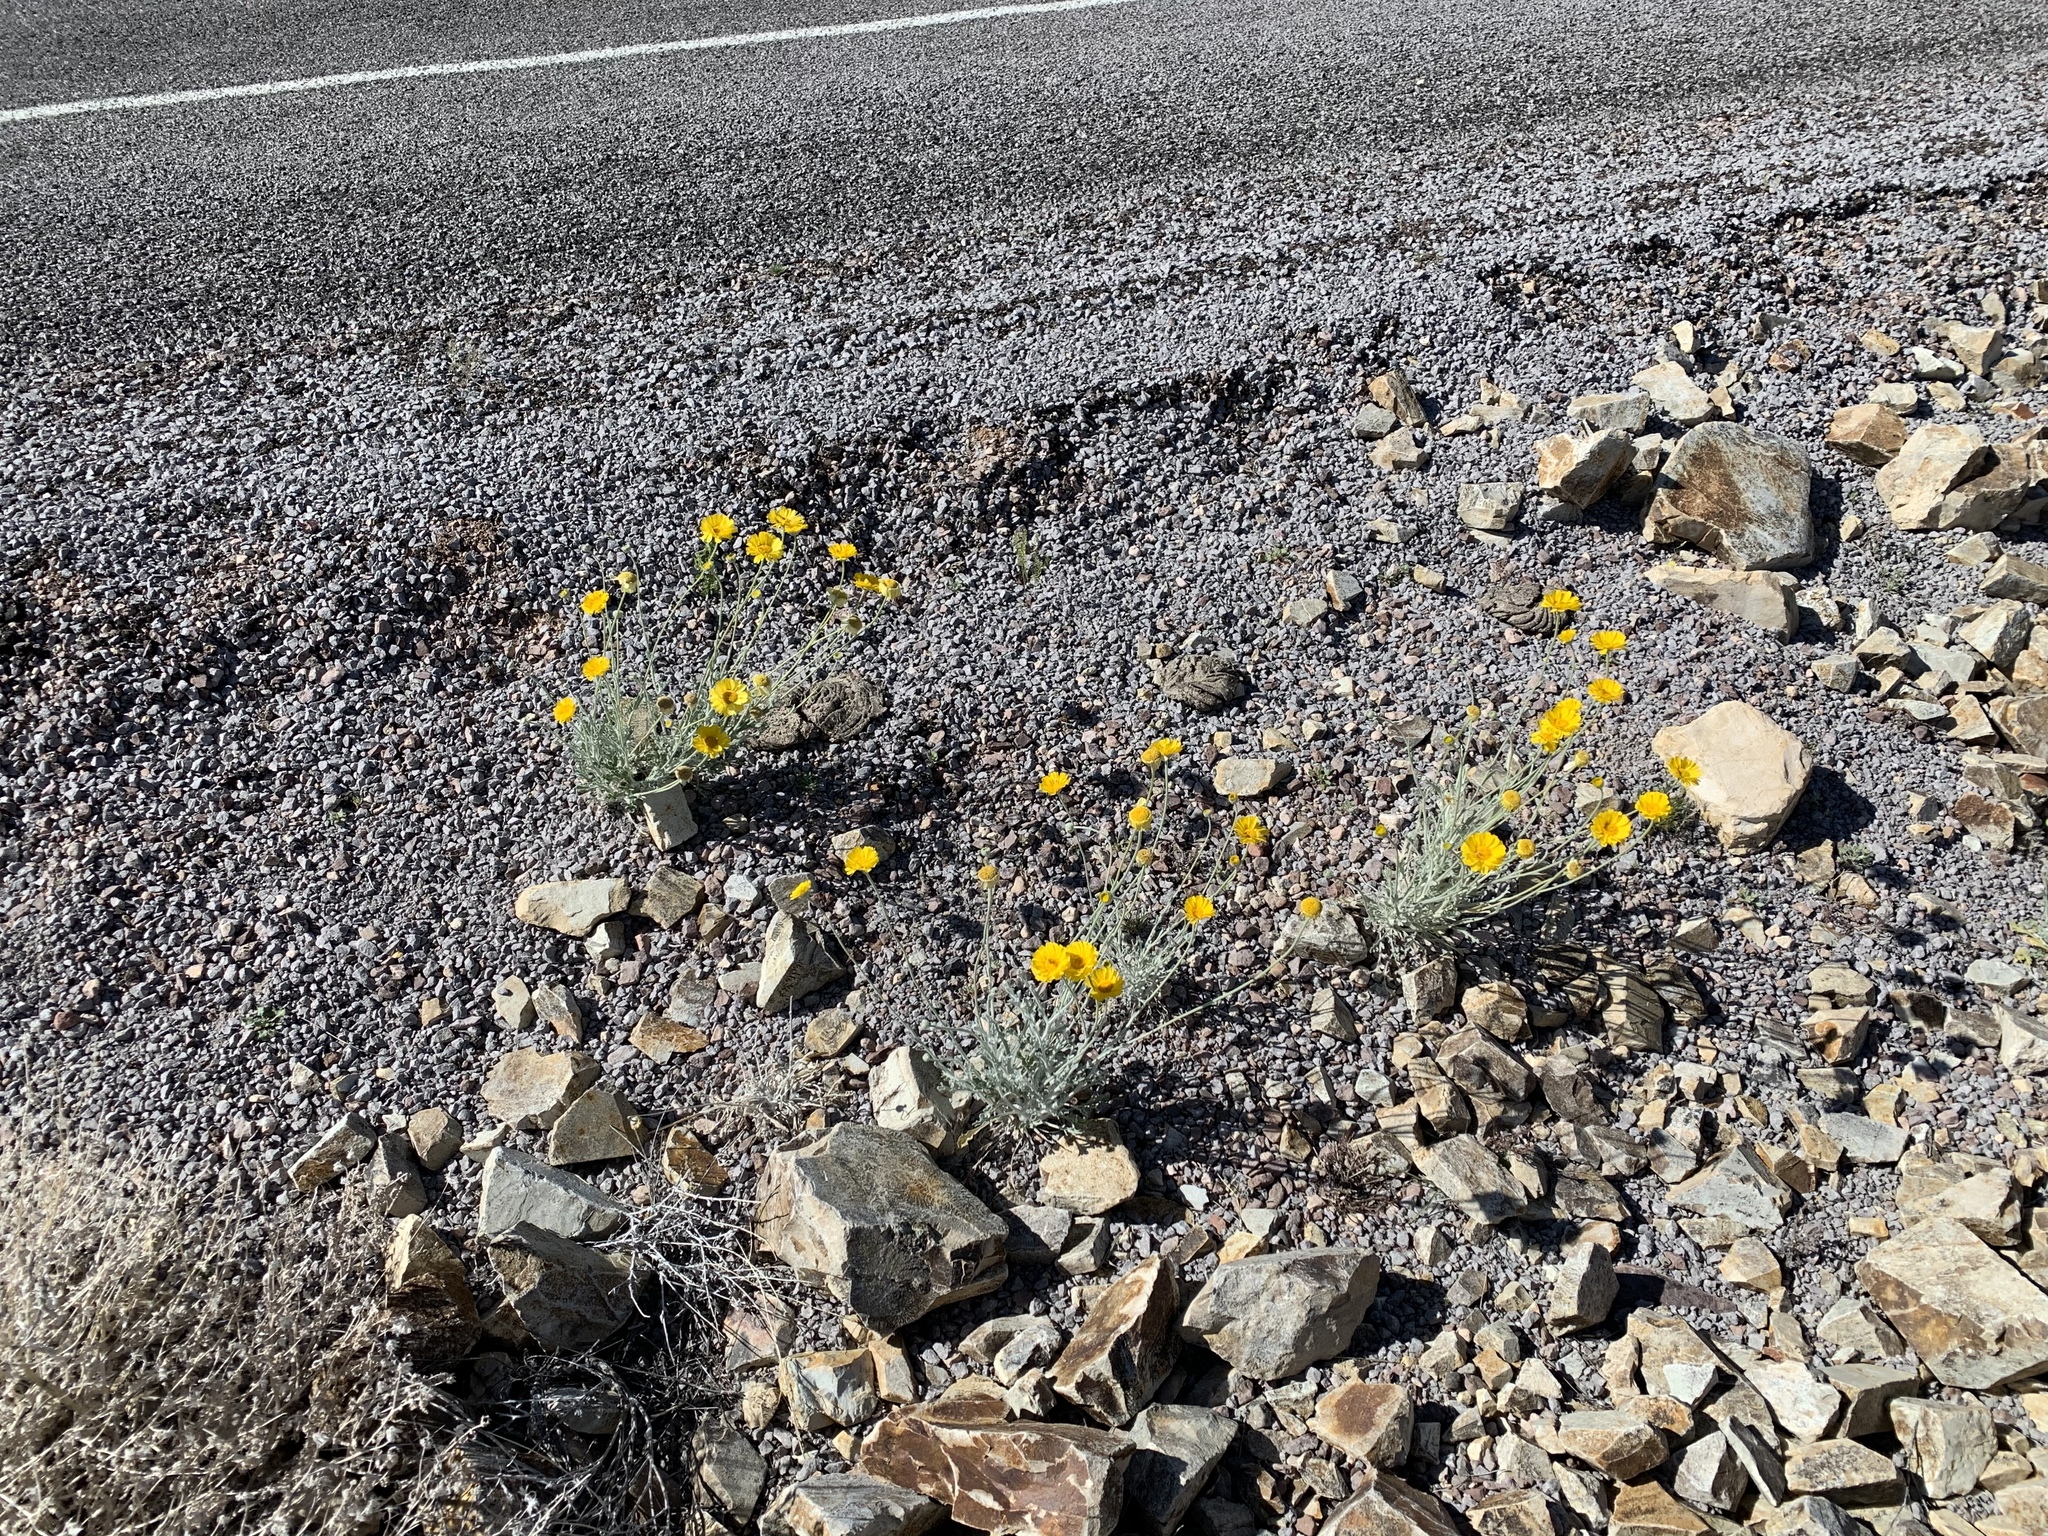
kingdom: Plantae
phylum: Tracheophyta
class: Magnoliopsida
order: Asterales
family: Asteraceae
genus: Baileya
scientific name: Baileya multiradiata
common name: Desert-marigold
